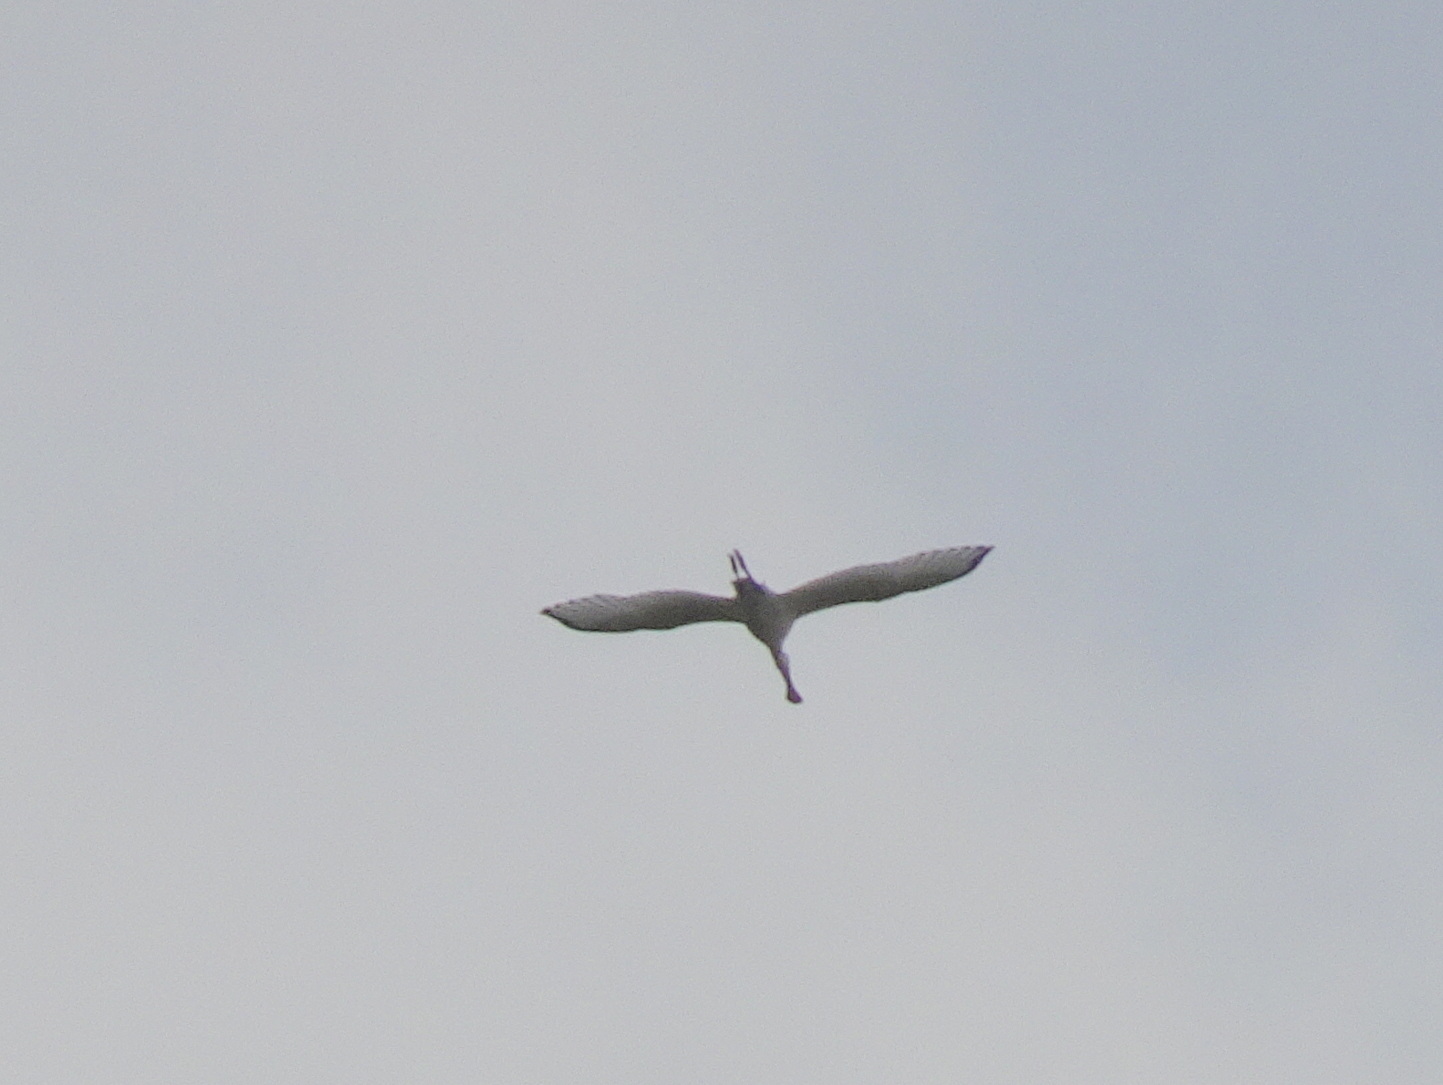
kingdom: Animalia
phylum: Chordata
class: Aves
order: Pelecaniformes
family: Threskiornithidae
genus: Platalea
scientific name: Platalea leucorodia
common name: Eurasian spoonbill
